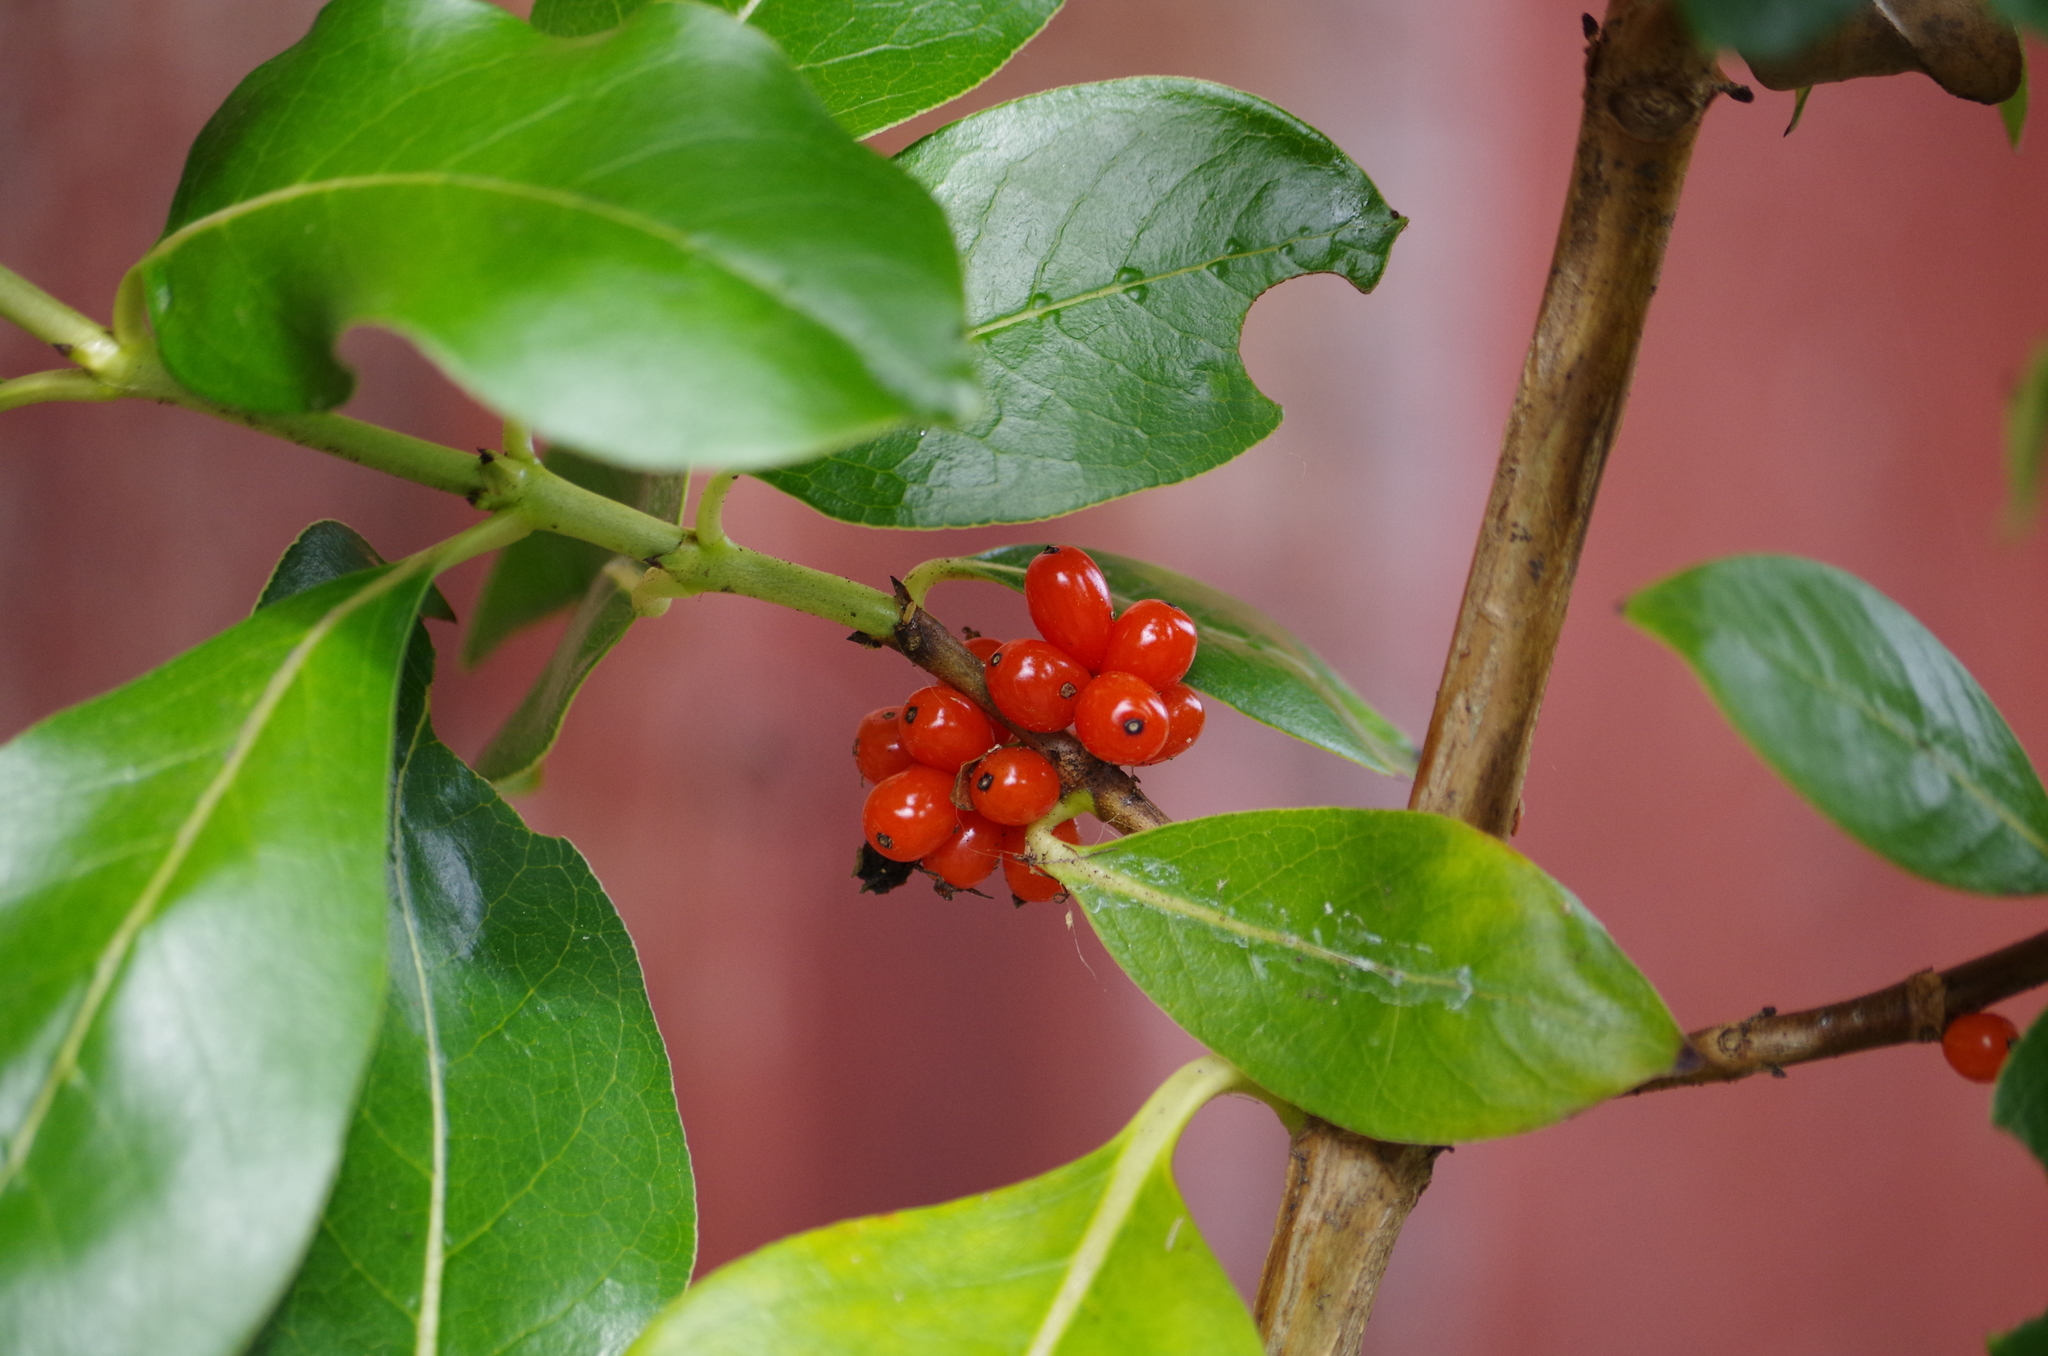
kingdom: Plantae
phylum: Tracheophyta
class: Magnoliopsida
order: Gentianales
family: Rubiaceae
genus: Coprosma
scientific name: Coprosma robusta
